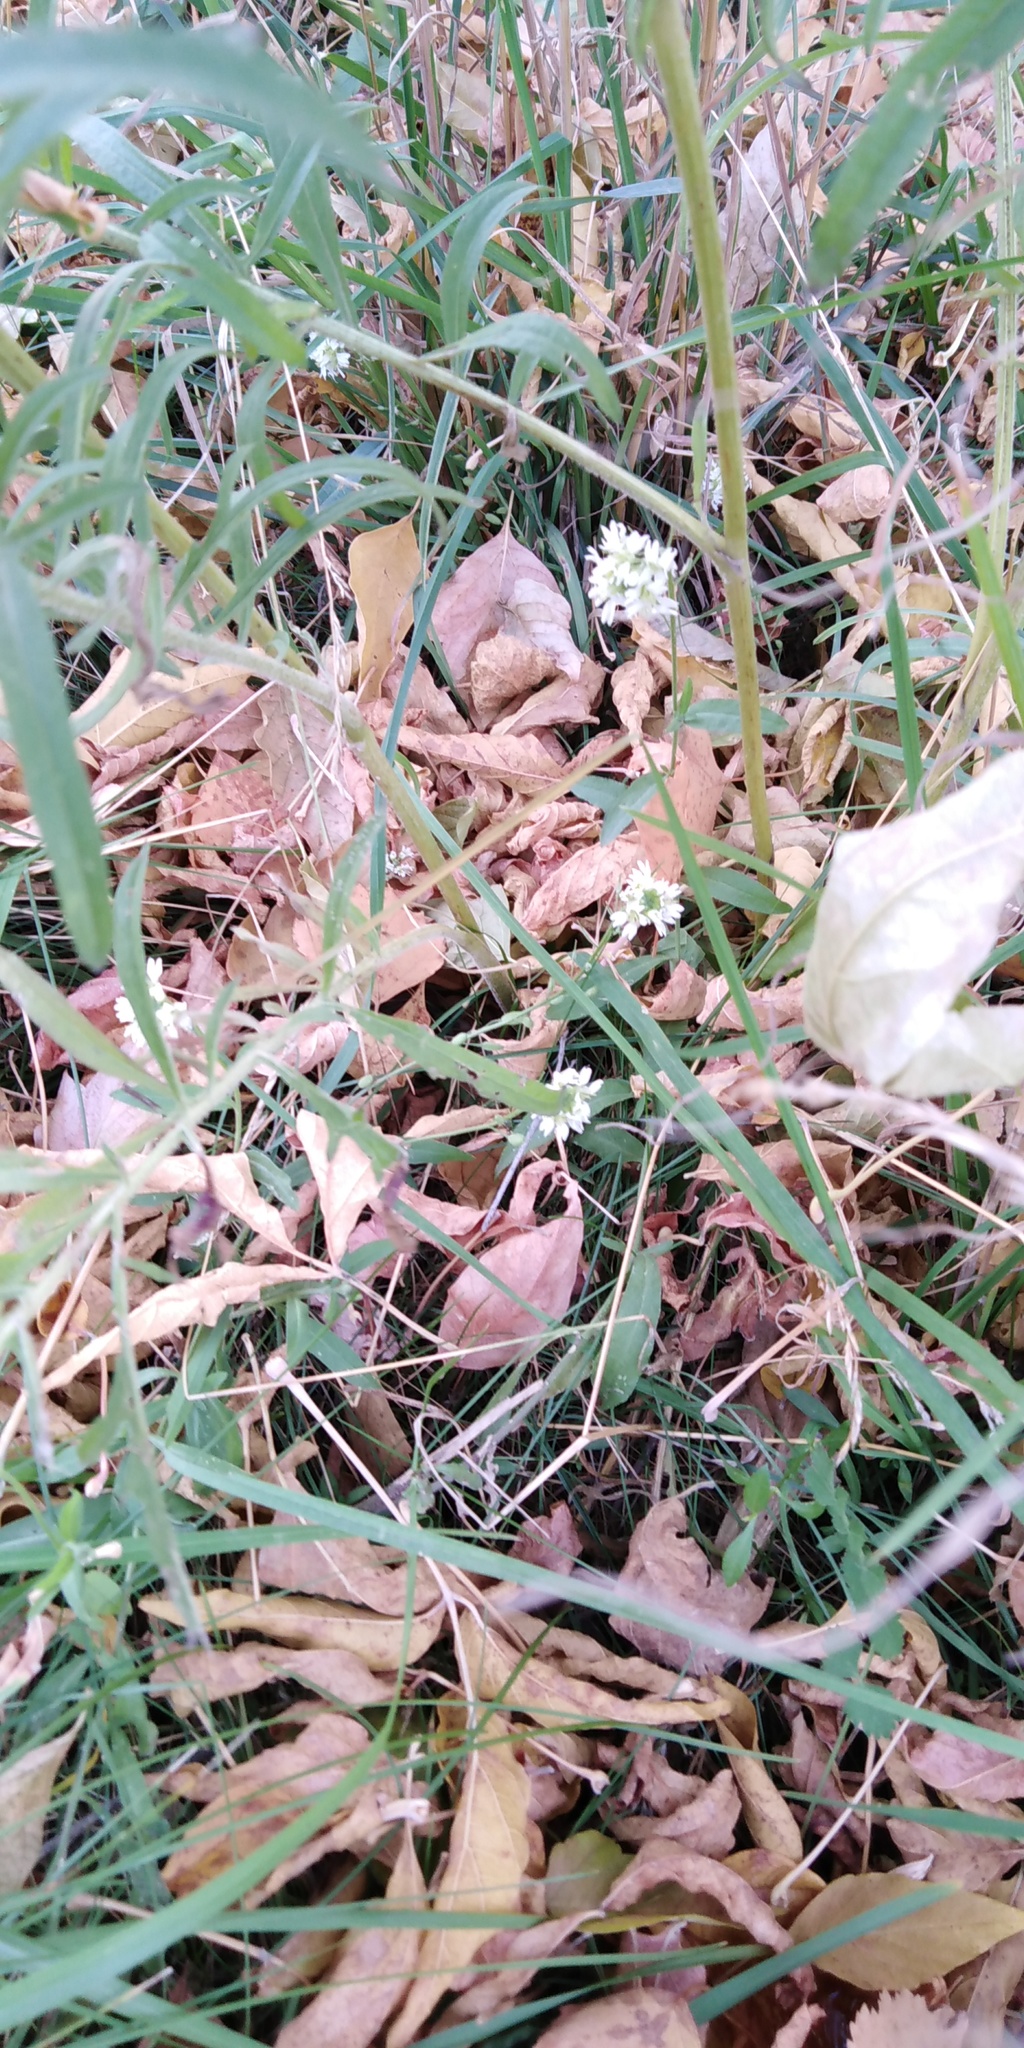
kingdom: Plantae
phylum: Tracheophyta
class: Magnoliopsida
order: Brassicales
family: Brassicaceae
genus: Berteroa
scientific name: Berteroa incana
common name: Hoary alison
